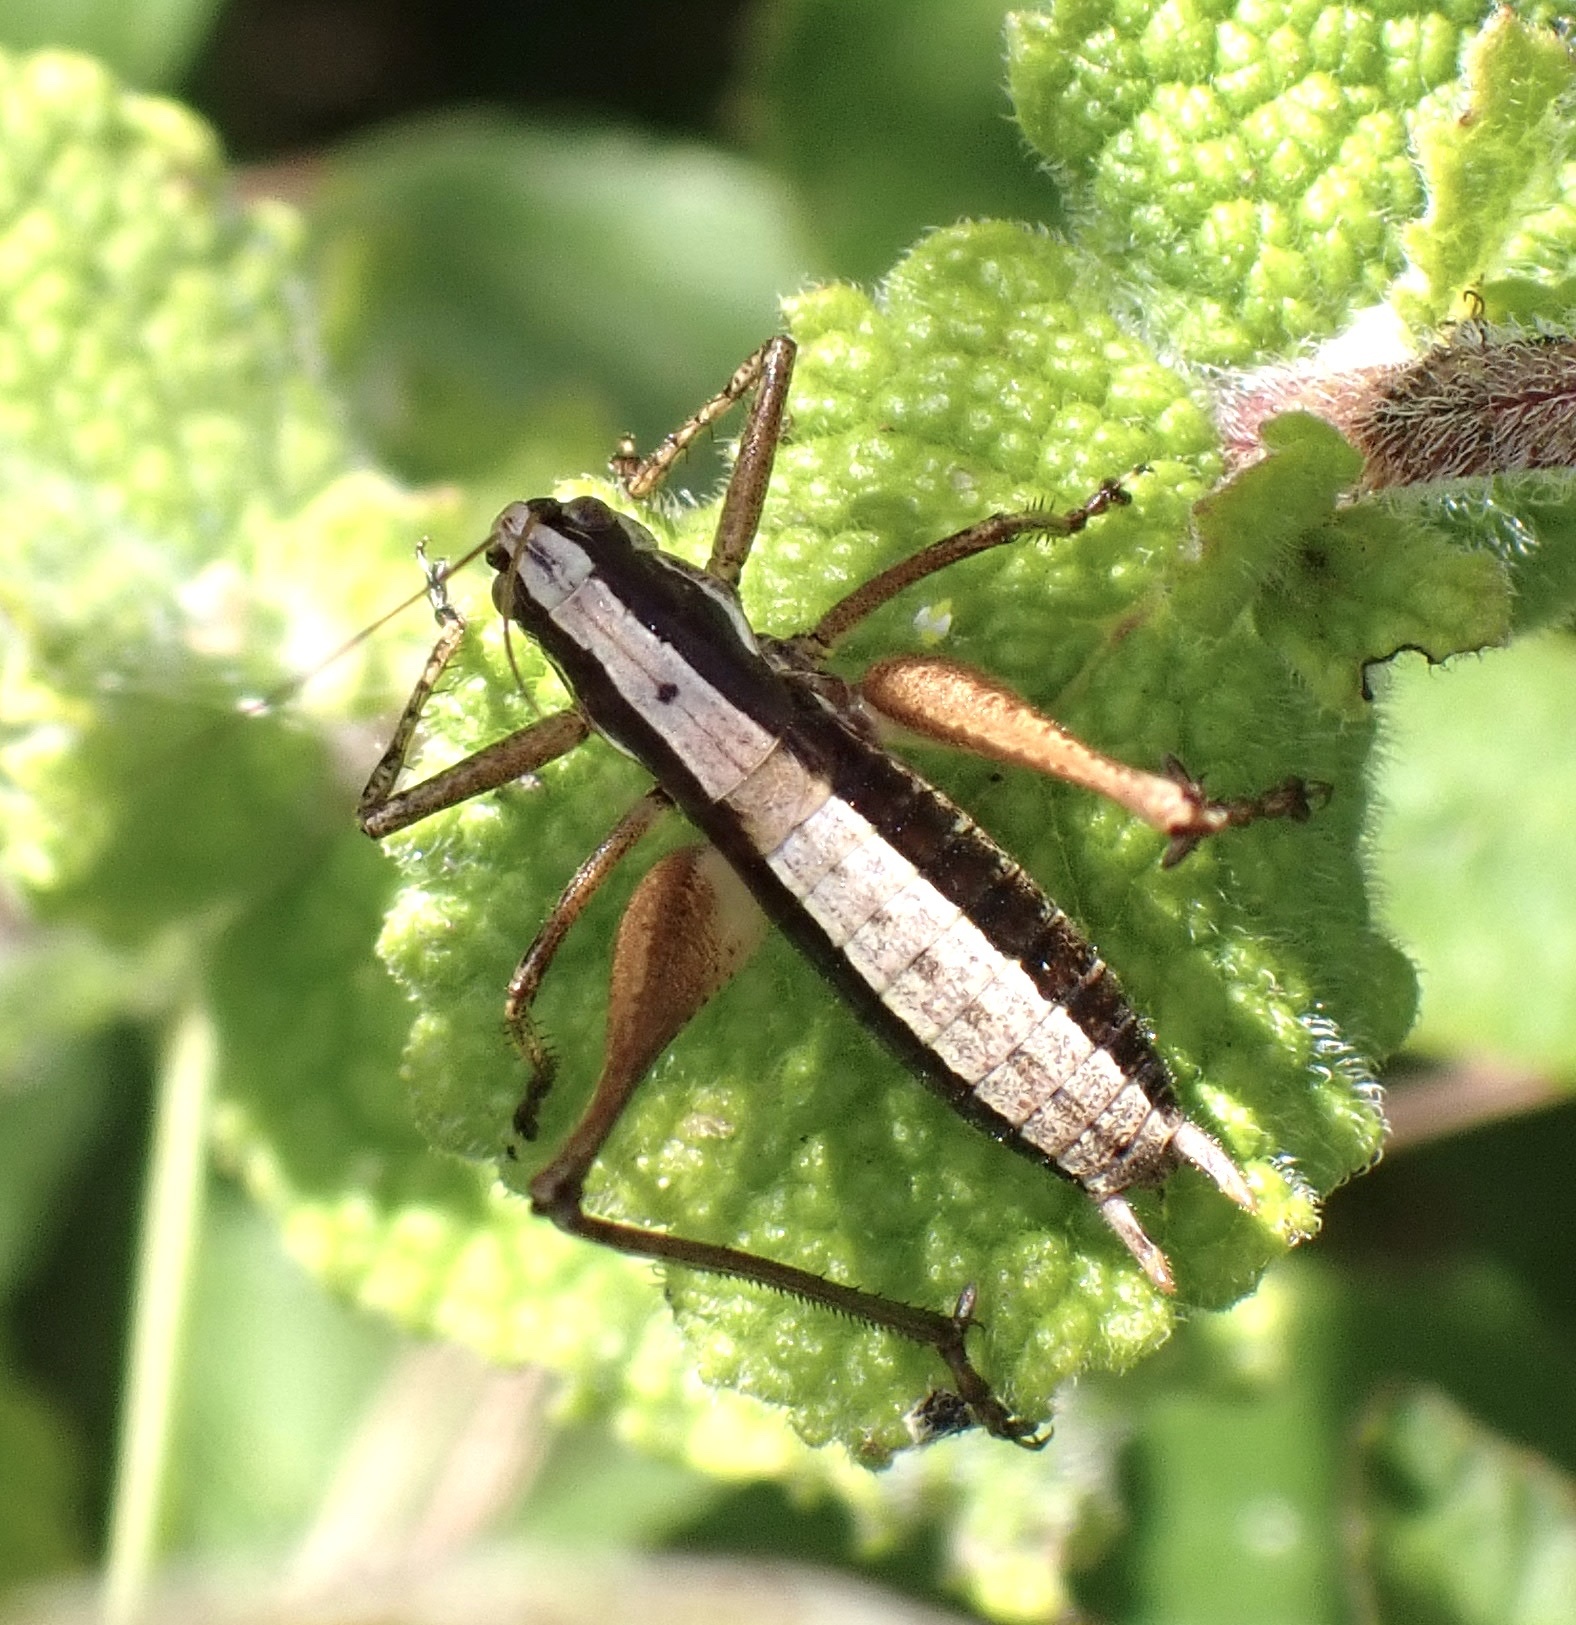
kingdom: Animalia
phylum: Arthropoda
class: Insecta
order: Orthoptera
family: Tettigoniidae
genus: Yersinella
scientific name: Yersinella raymondii
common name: Raymond's bush-cricket
